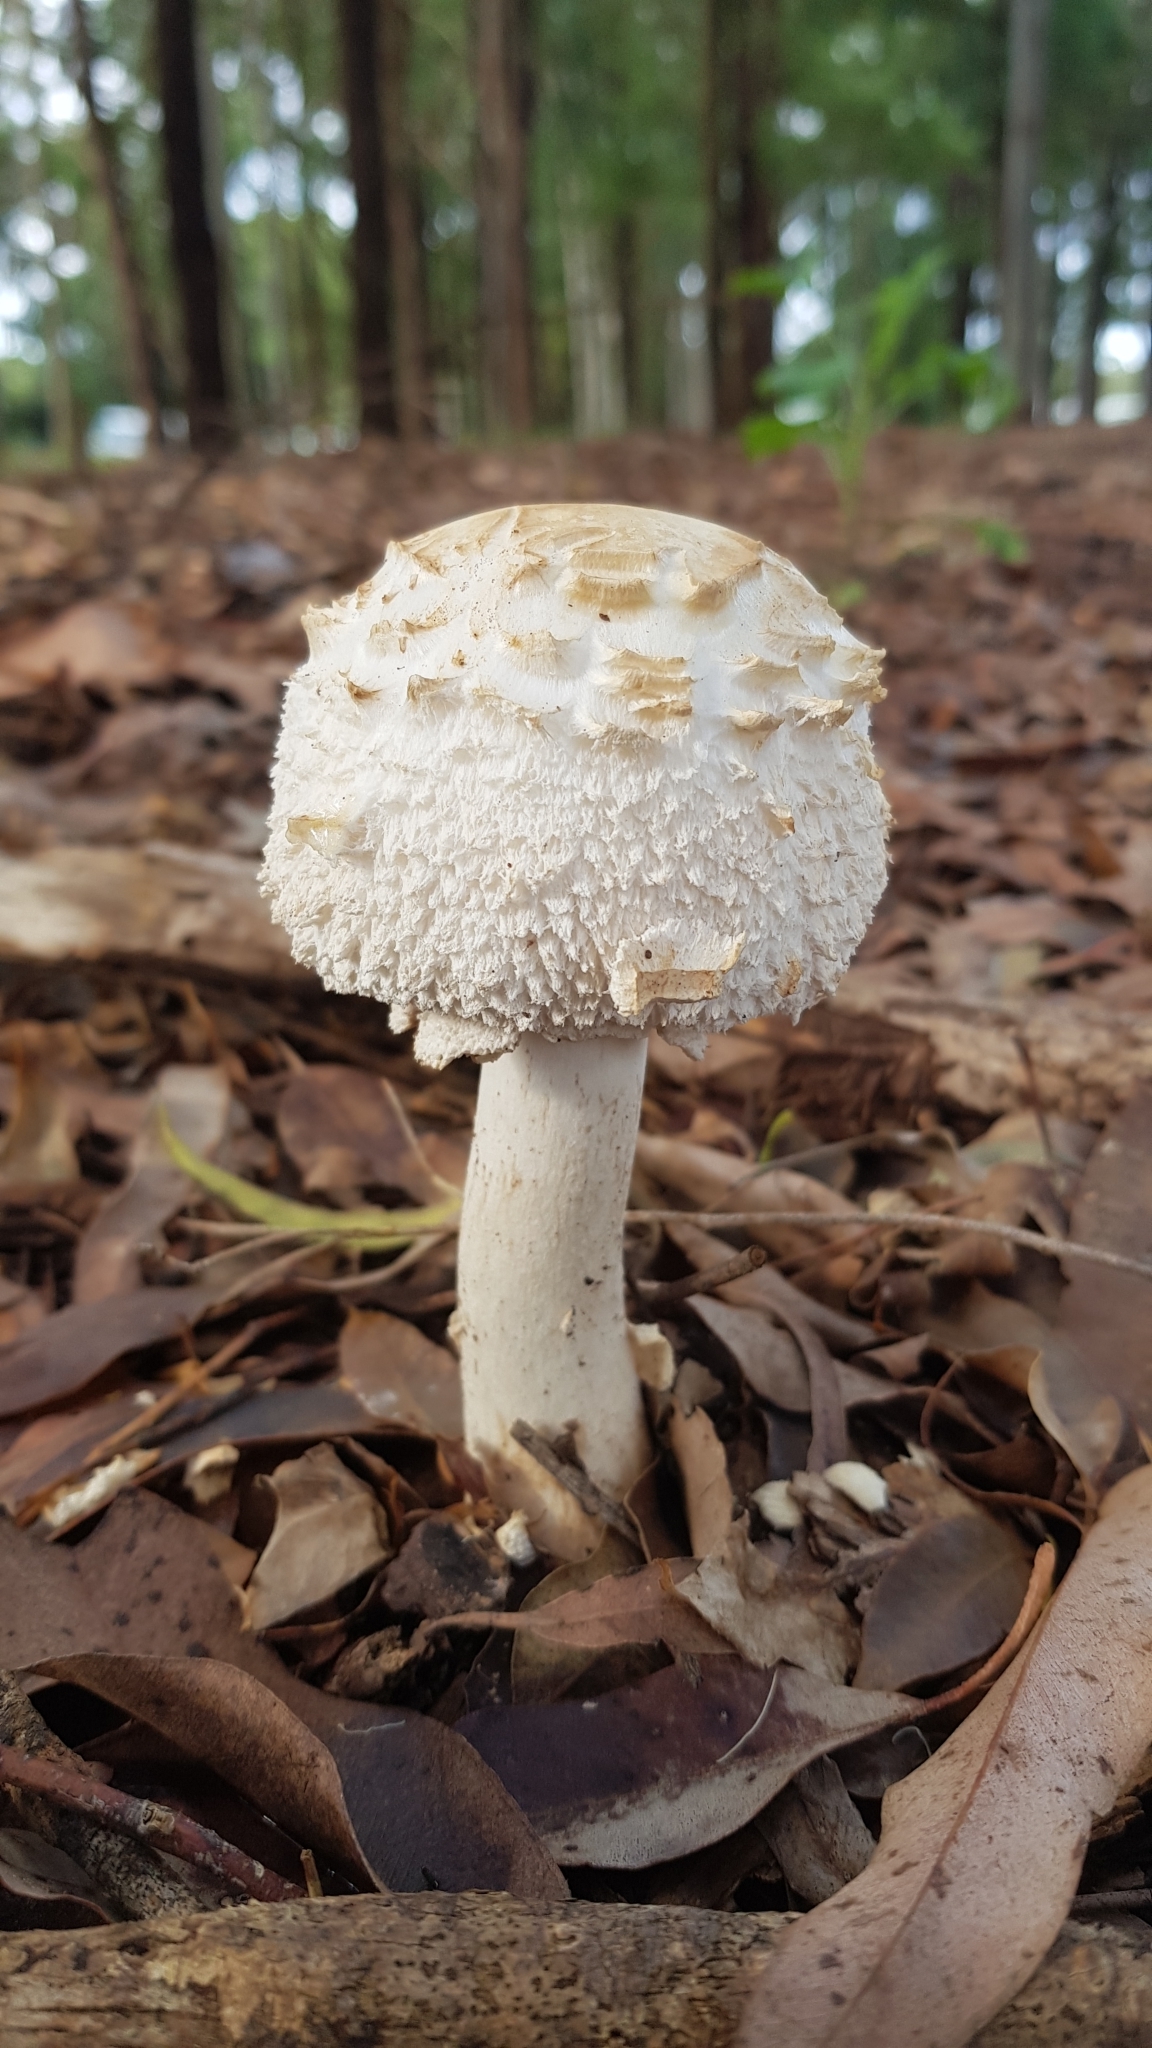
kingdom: Fungi
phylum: Basidiomycota
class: Agaricomycetes
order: Agaricales
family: Agaricaceae
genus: Chlorophyllum
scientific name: Chlorophyllum nothorhacodes
